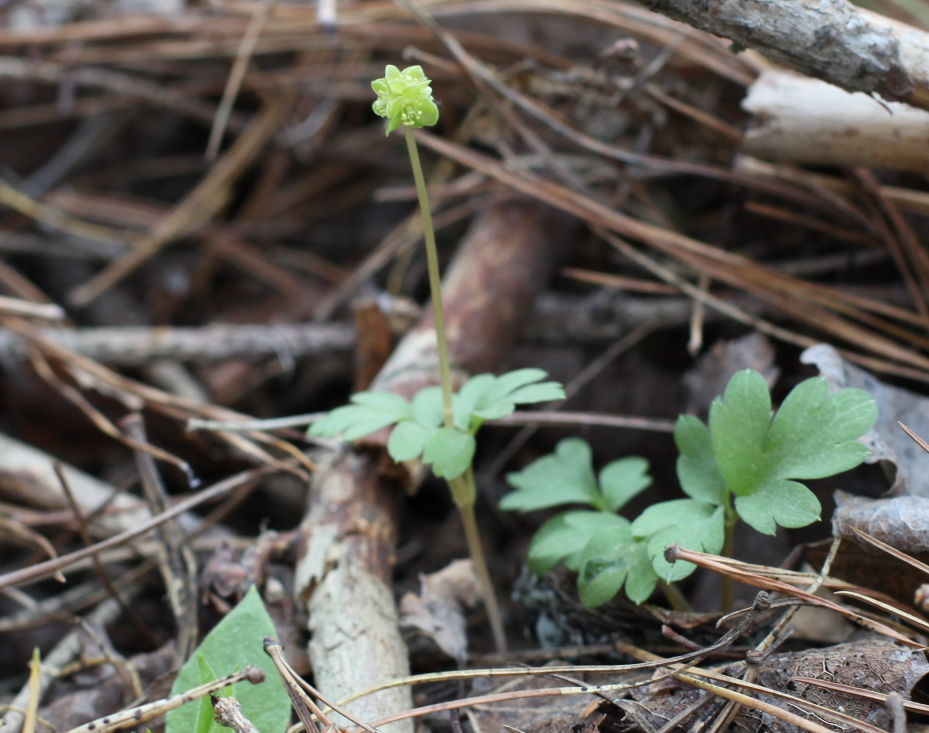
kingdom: Plantae
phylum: Tracheophyta
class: Magnoliopsida
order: Dipsacales
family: Viburnaceae
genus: Adoxa
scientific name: Adoxa moschatellina
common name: Moschatel
